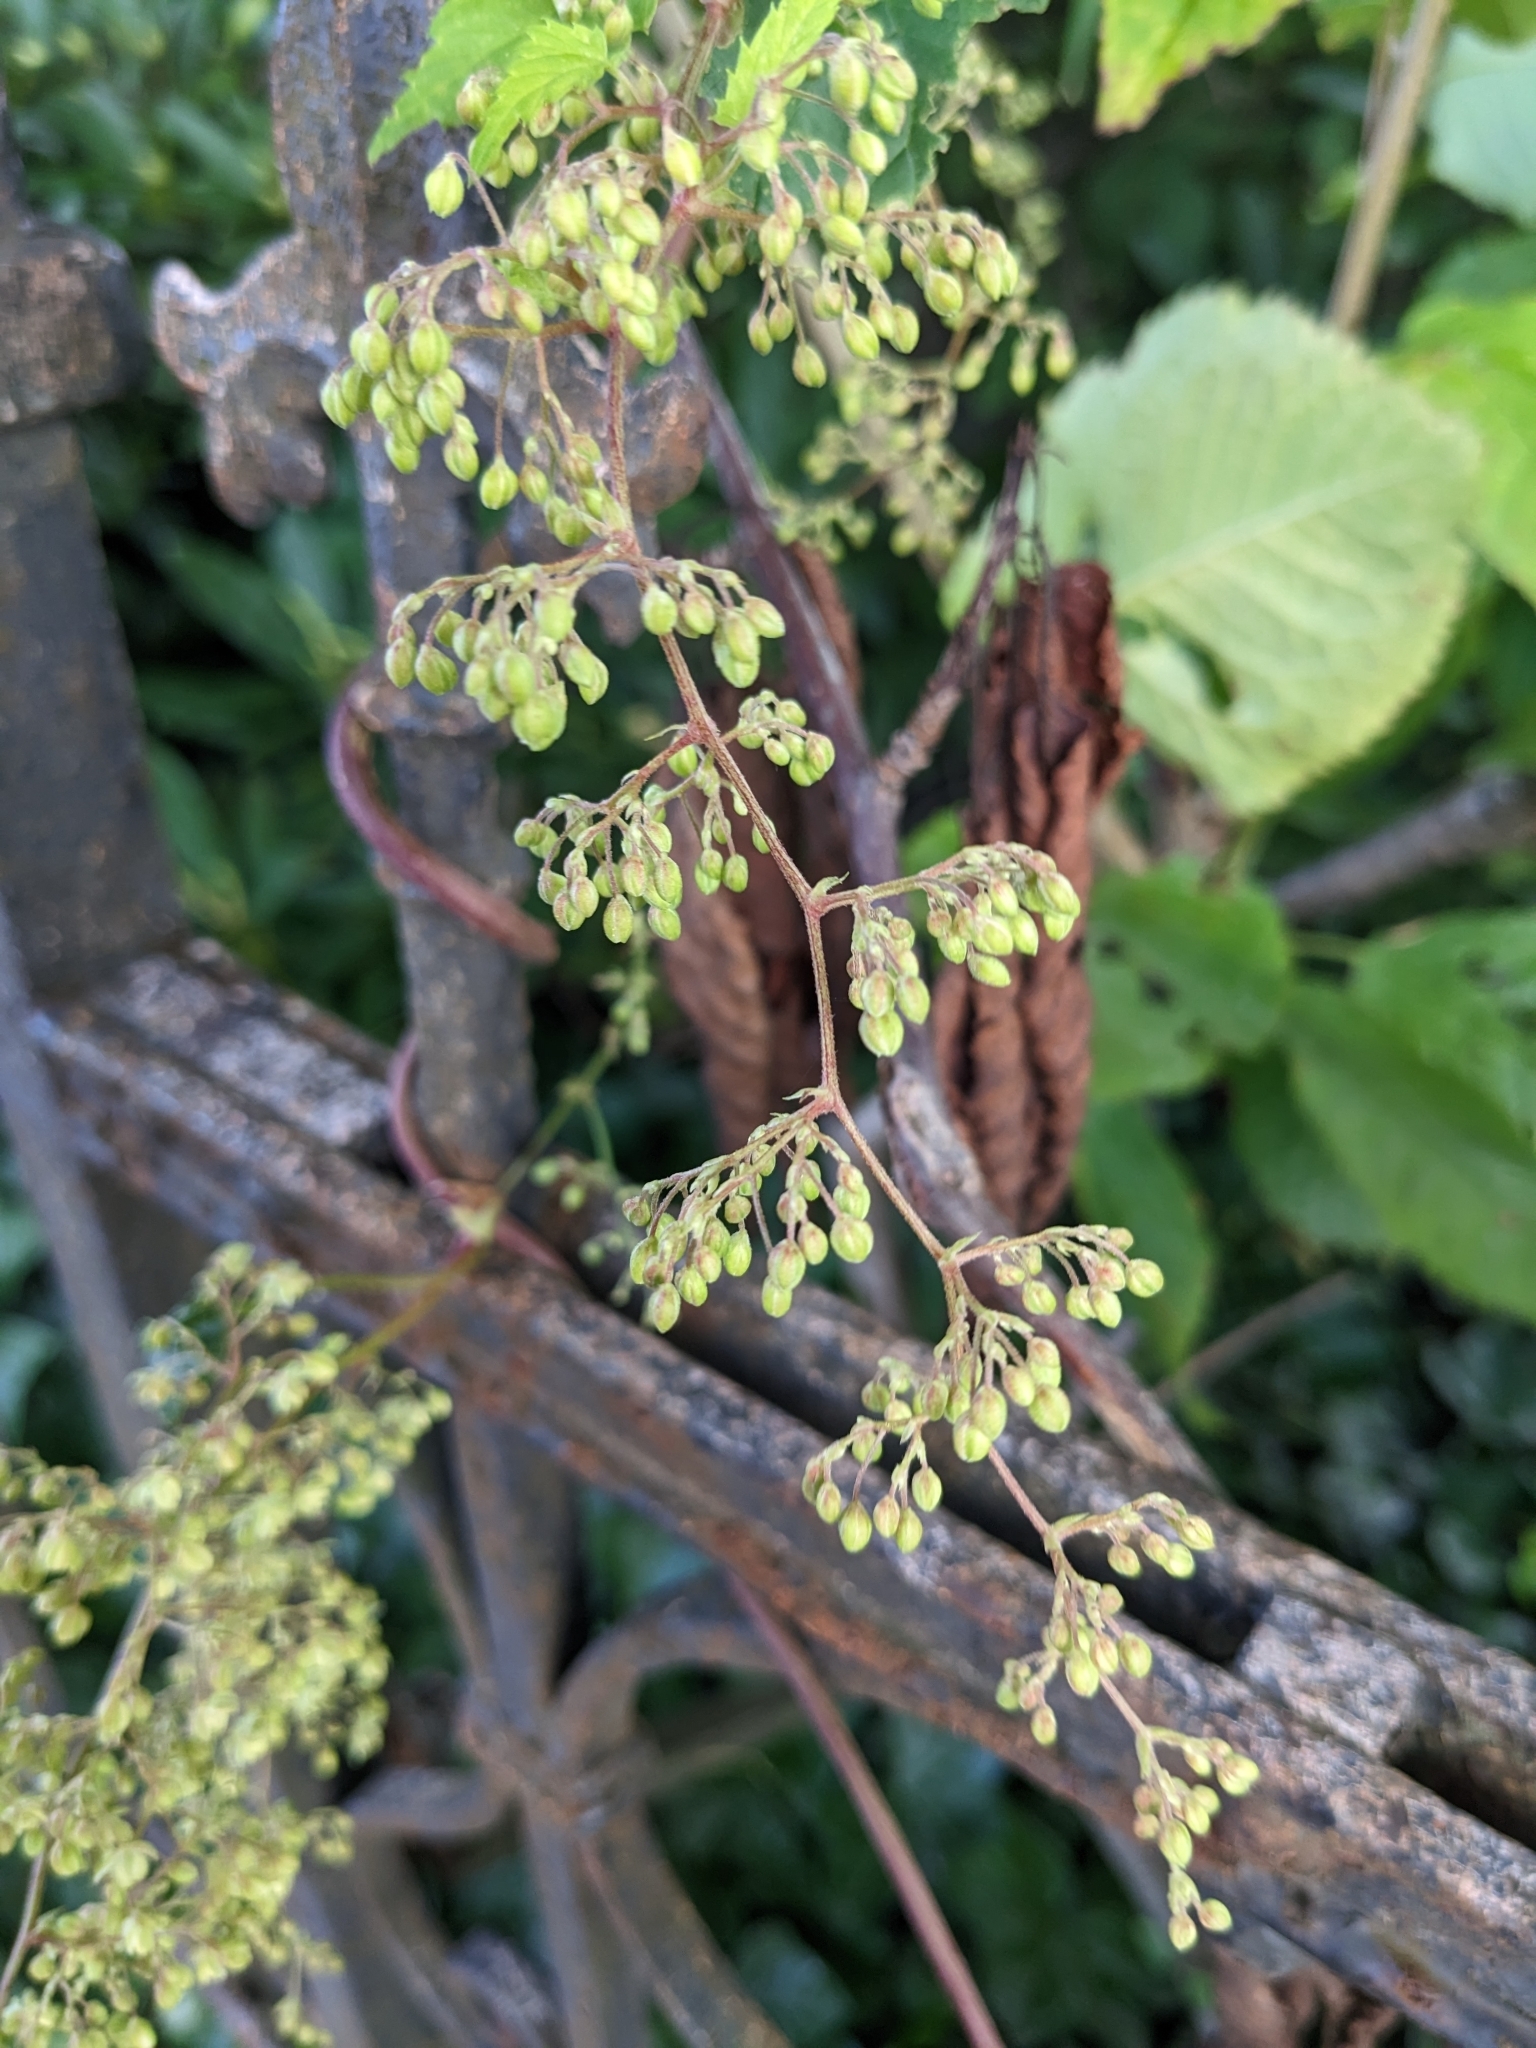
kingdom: Plantae
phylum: Tracheophyta
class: Magnoliopsida
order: Rosales
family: Cannabaceae
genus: Humulus
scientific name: Humulus lupulus
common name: Hop
